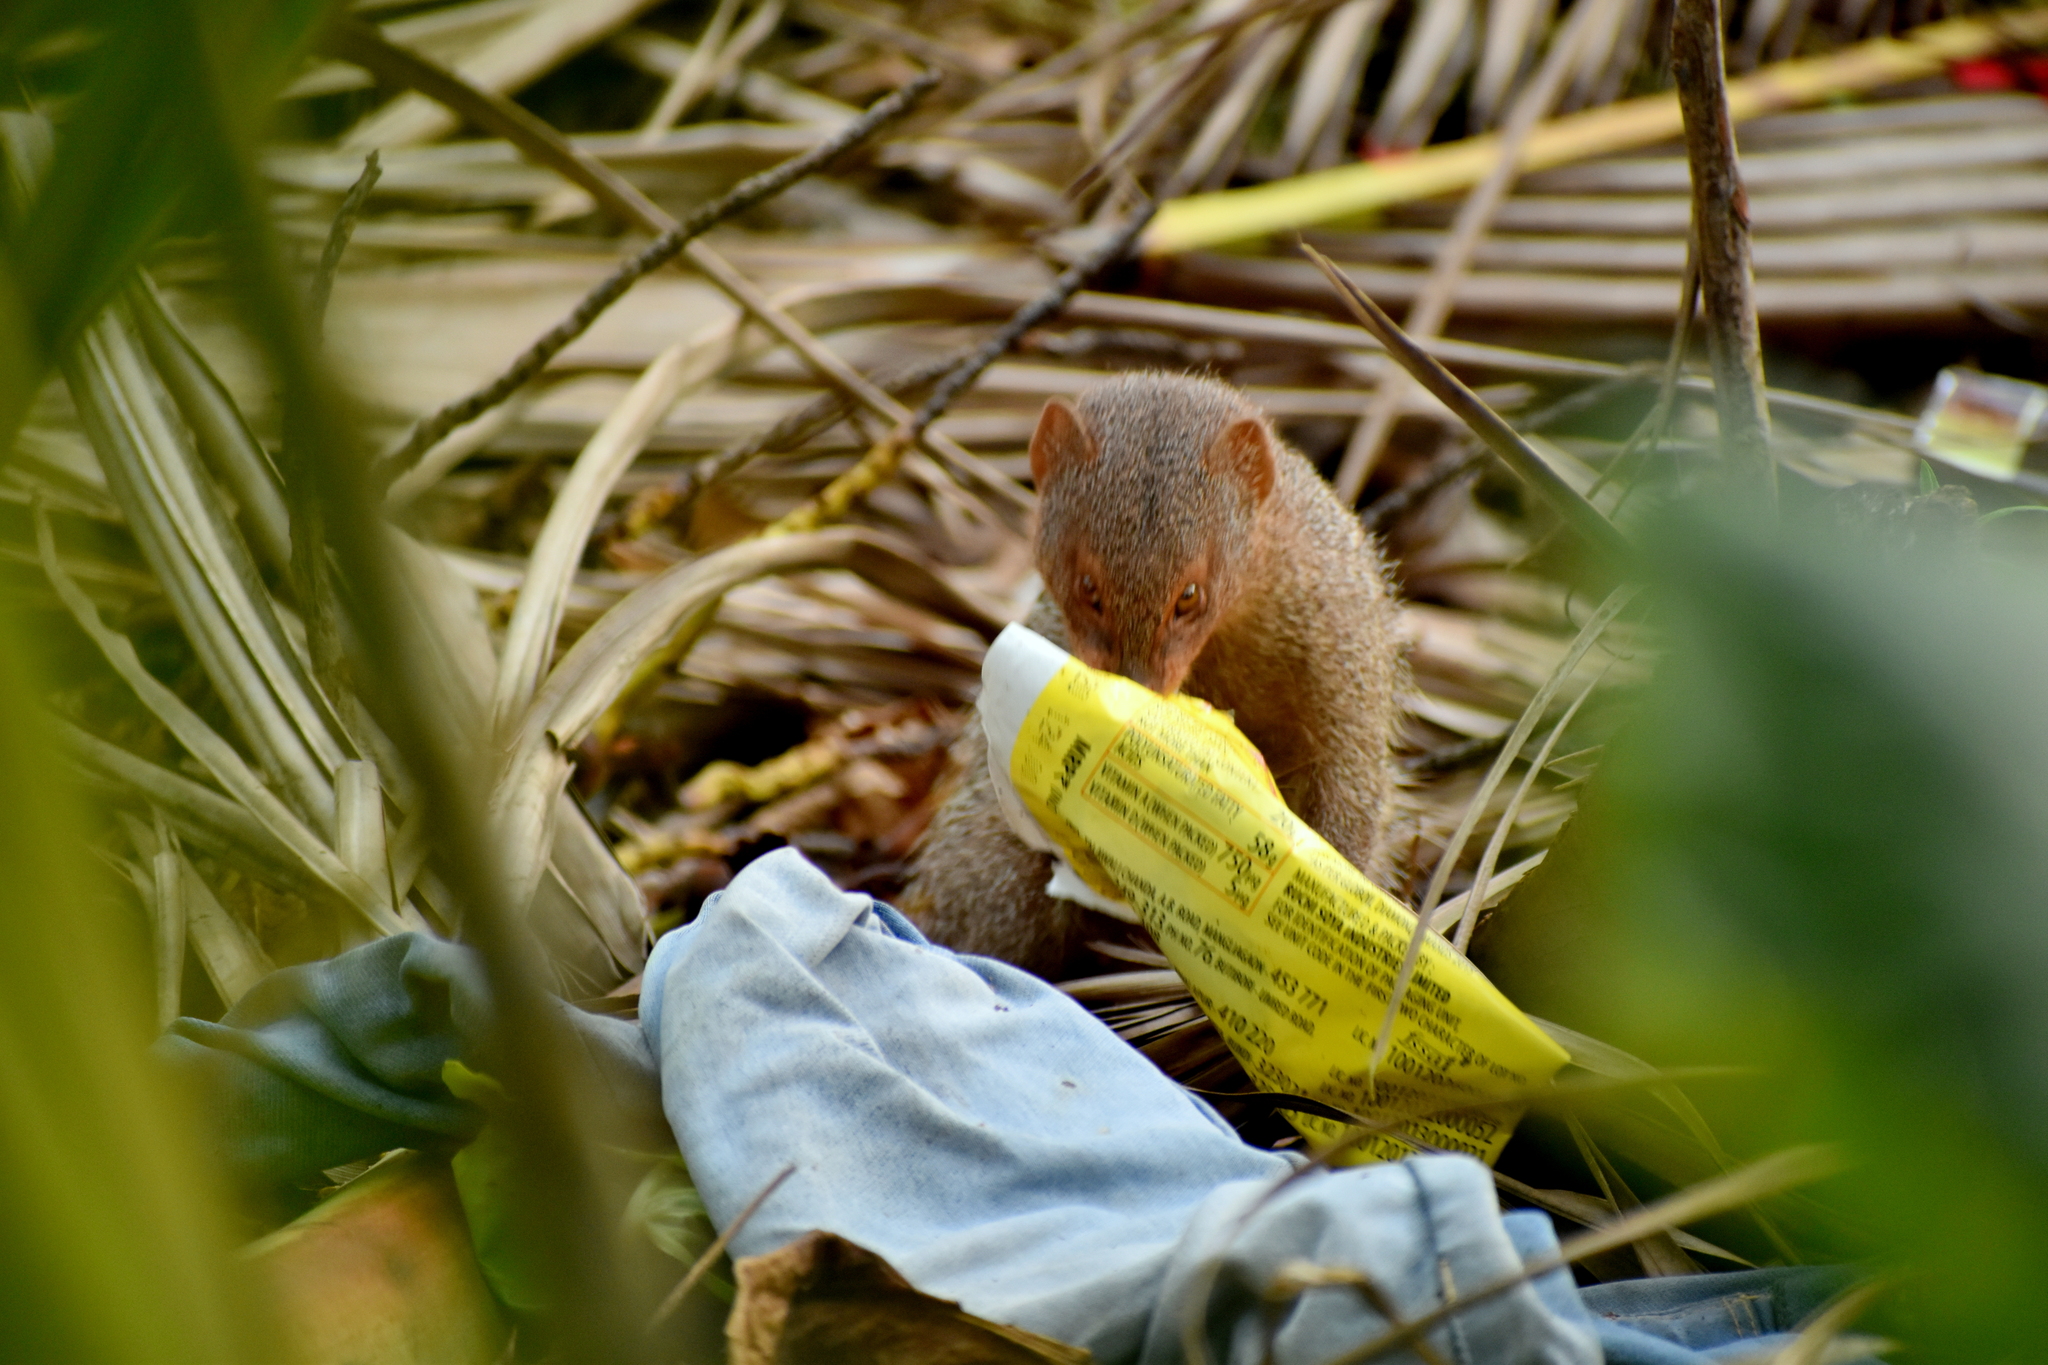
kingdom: Animalia
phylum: Chordata
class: Mammalia
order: Carnivora
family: Herpestidae
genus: Herpestes
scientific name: Herpestes edwardsi
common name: Indian gray mongoose
